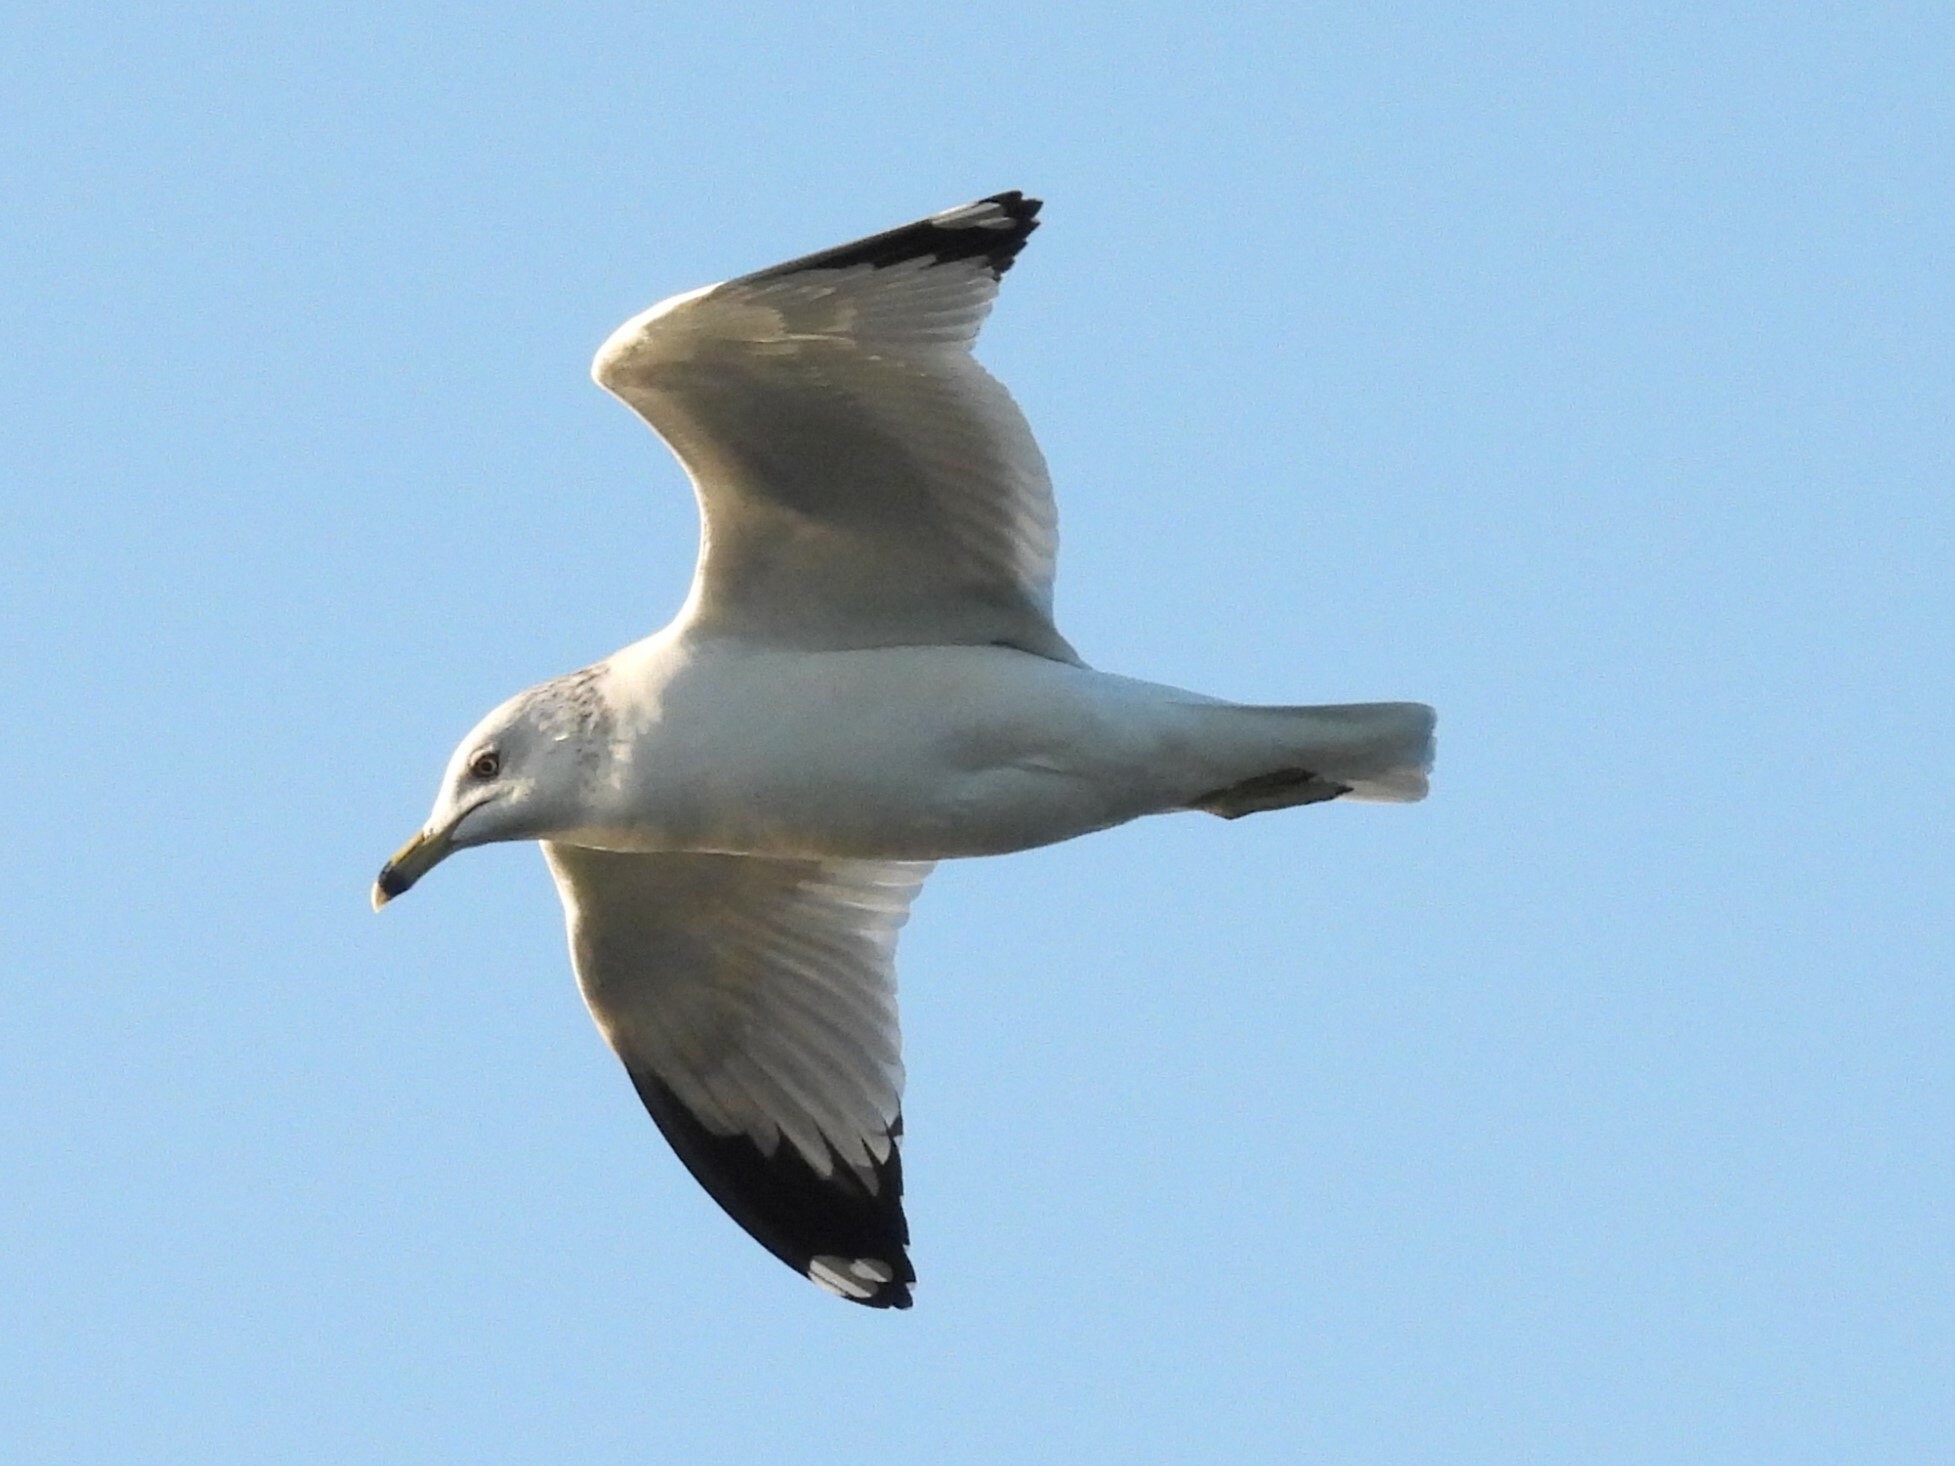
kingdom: Animalia
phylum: Chordata
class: Aves
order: Charadriiformes
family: Laridae
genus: Larus
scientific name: Larus delawarensis
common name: Ring-billed gull
